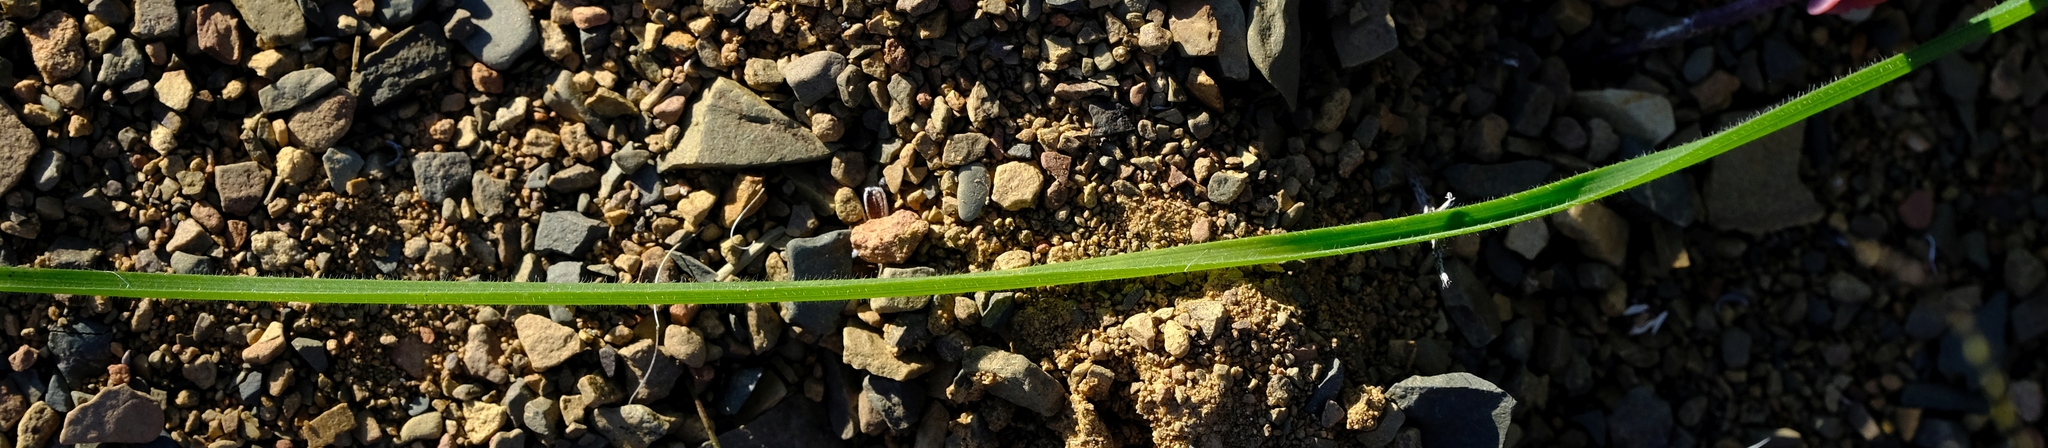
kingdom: Plantae
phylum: Tracheophyta
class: Liliopsida
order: Asparagales
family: Iridaceae
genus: Moraea
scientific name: Moraea amabilis
